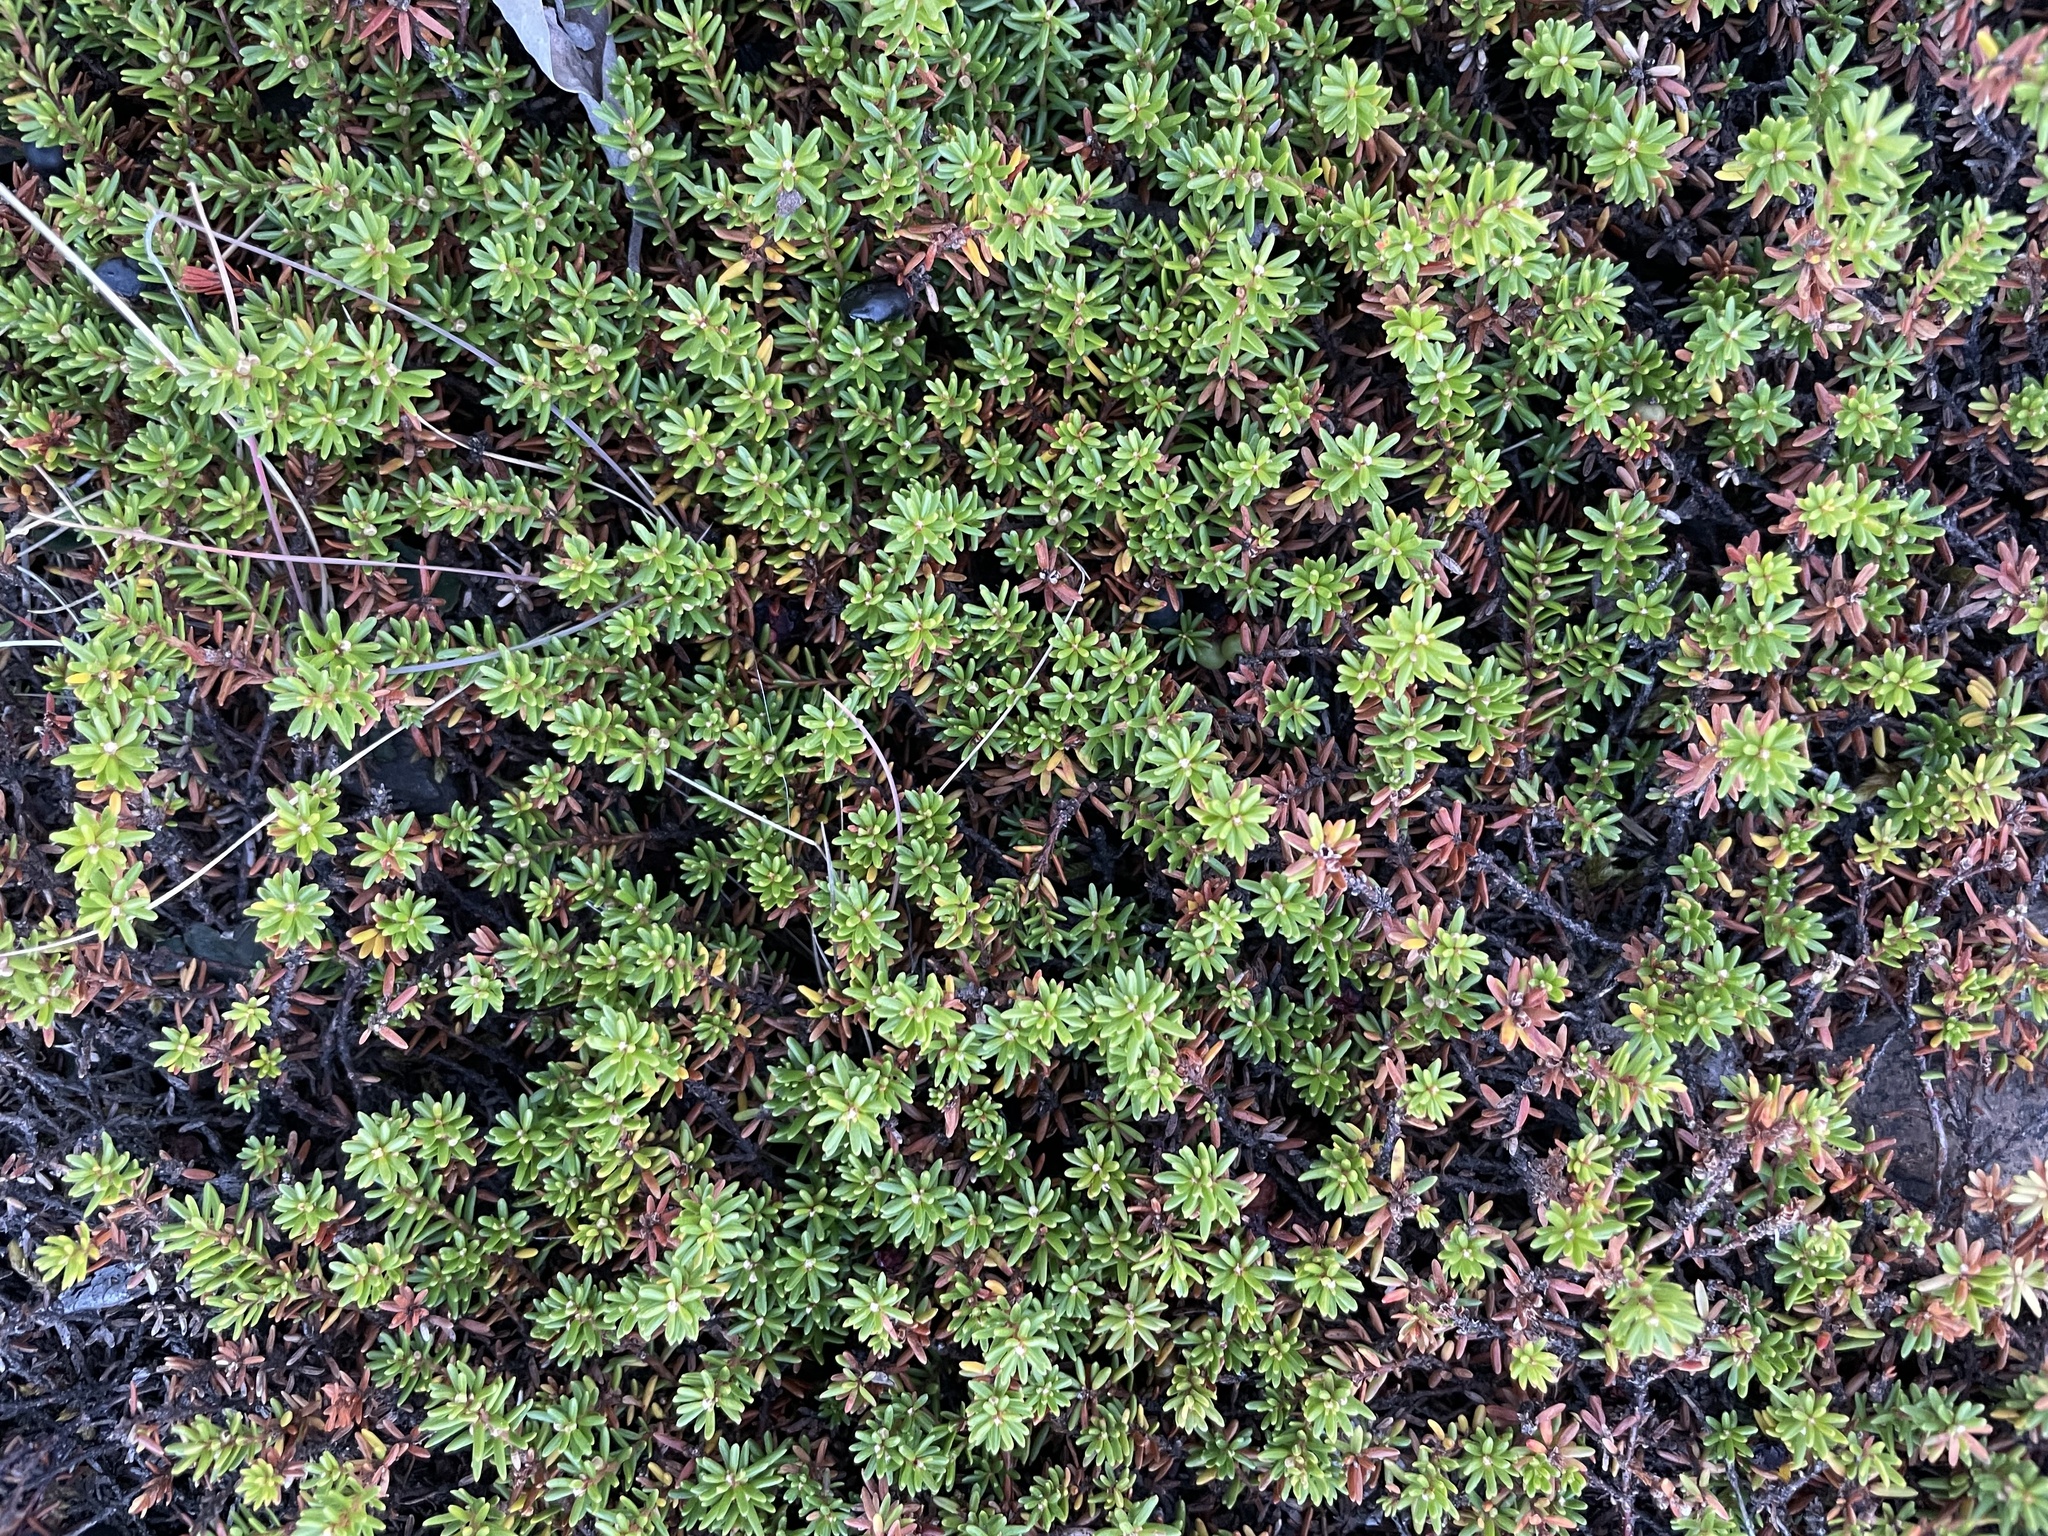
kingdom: Plantae
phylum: Tracheophyta
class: Magnoliopsida
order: Ericales
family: Ericaceae
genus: Empetrum
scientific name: Empetrum nigrum
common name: Black crowberry
